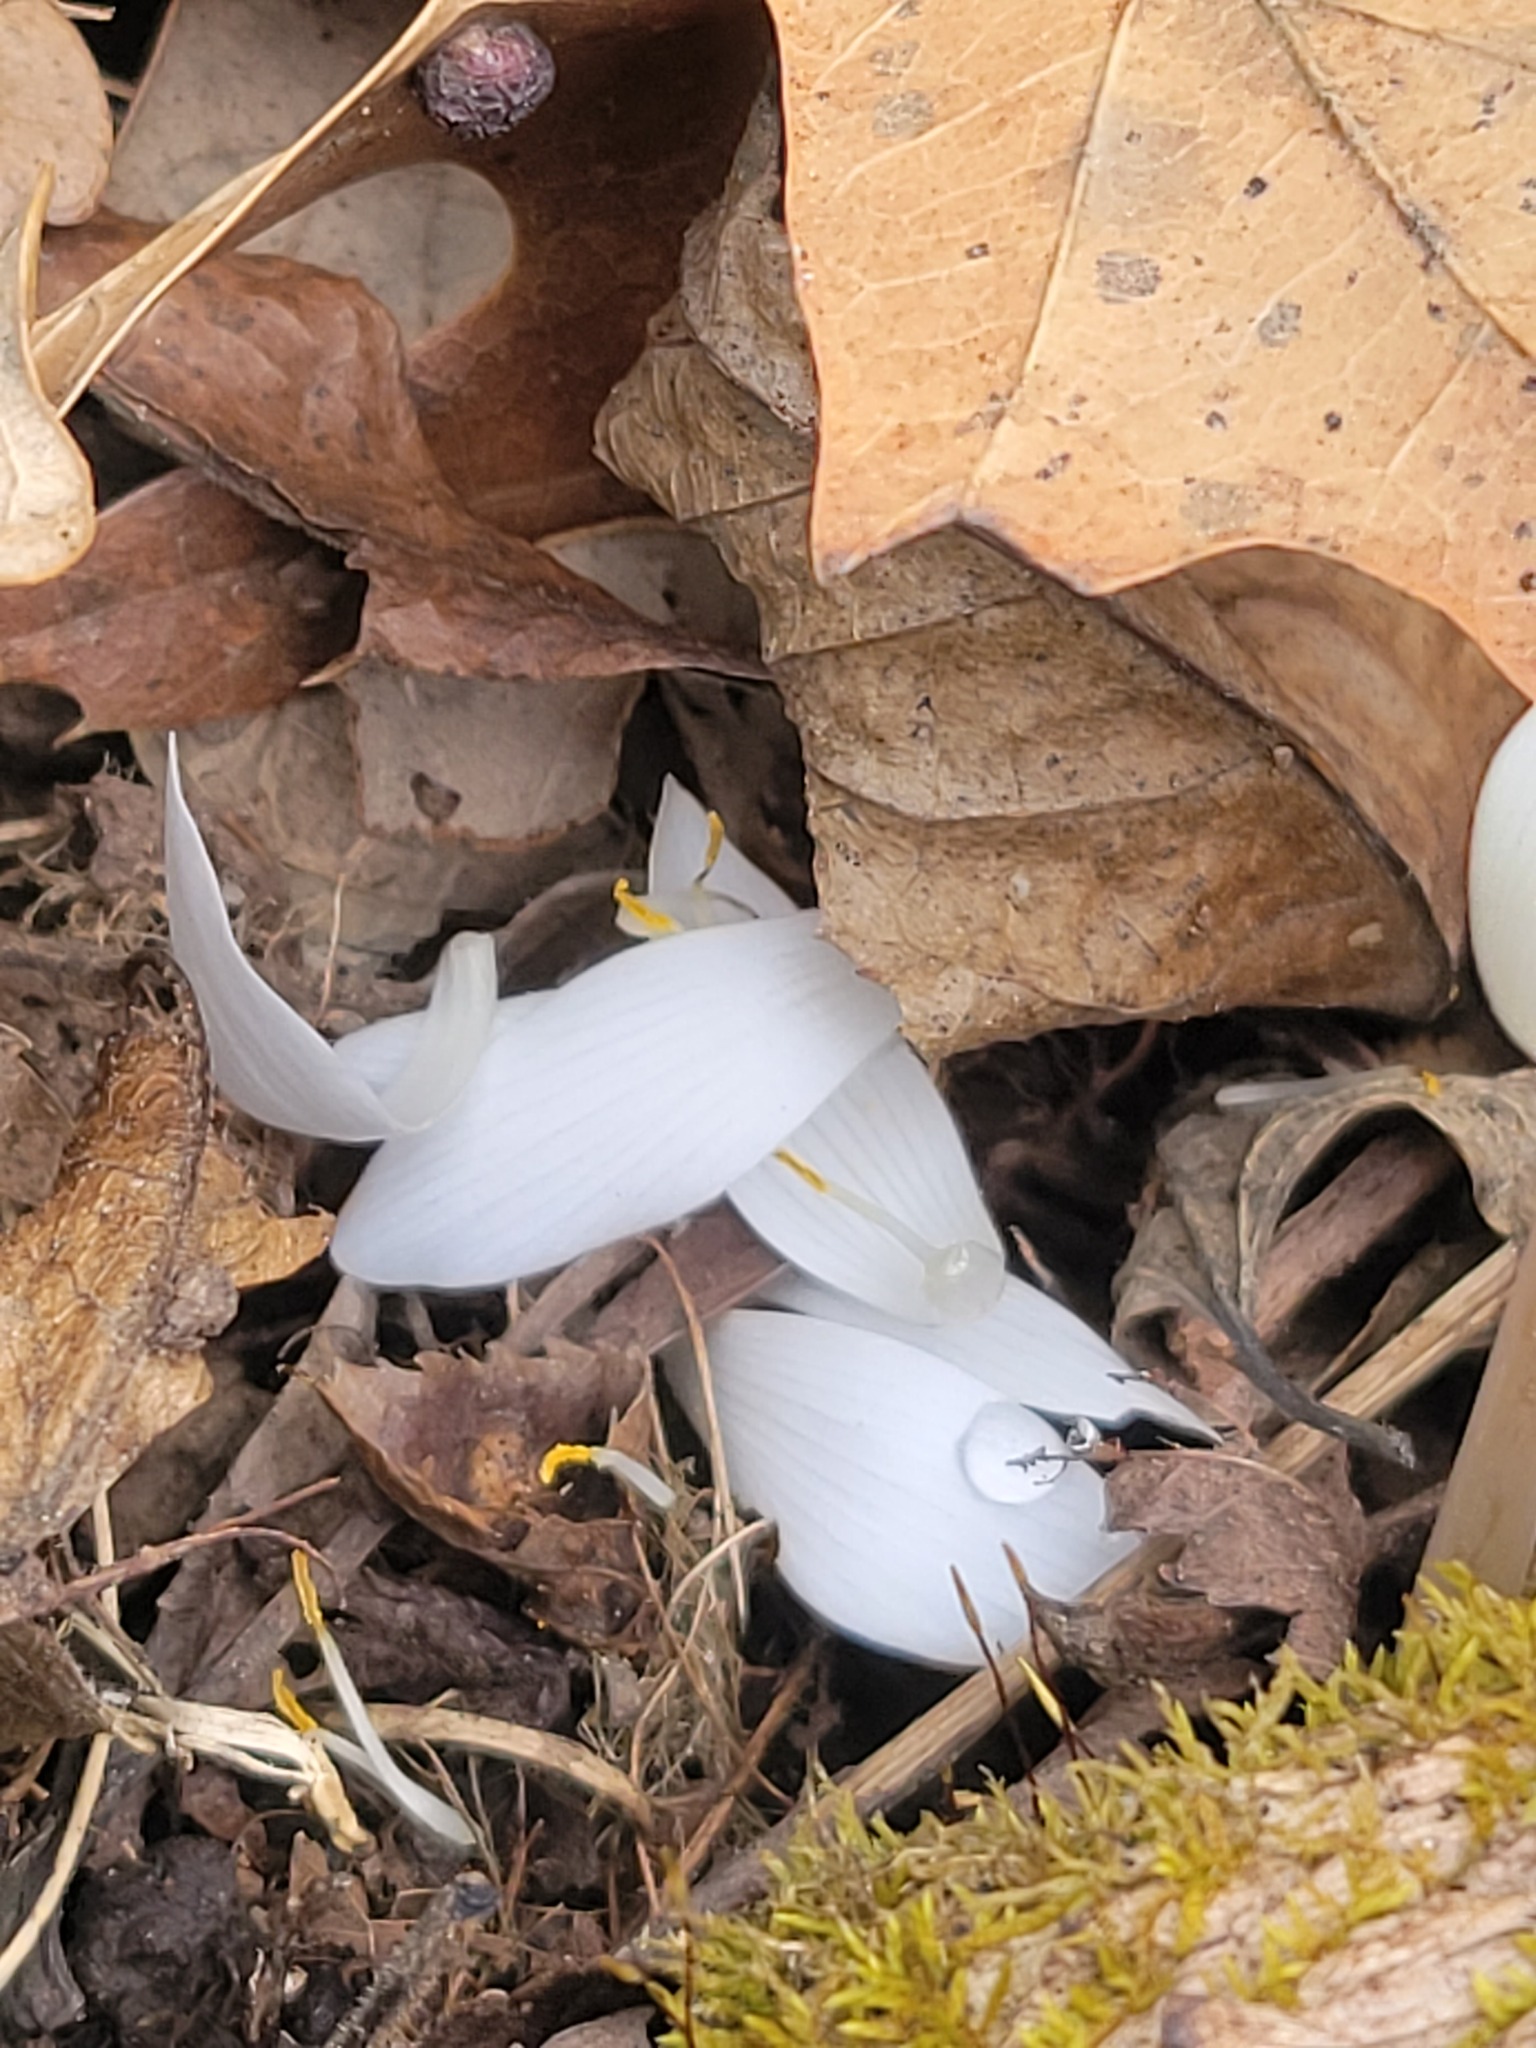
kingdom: Plantae
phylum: Tracheophyta
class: Magnoliopsida
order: Ranunculales
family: Papaveraceae
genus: Sanguinaria
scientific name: Sanguinaria canadensis
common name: Bloodroot
